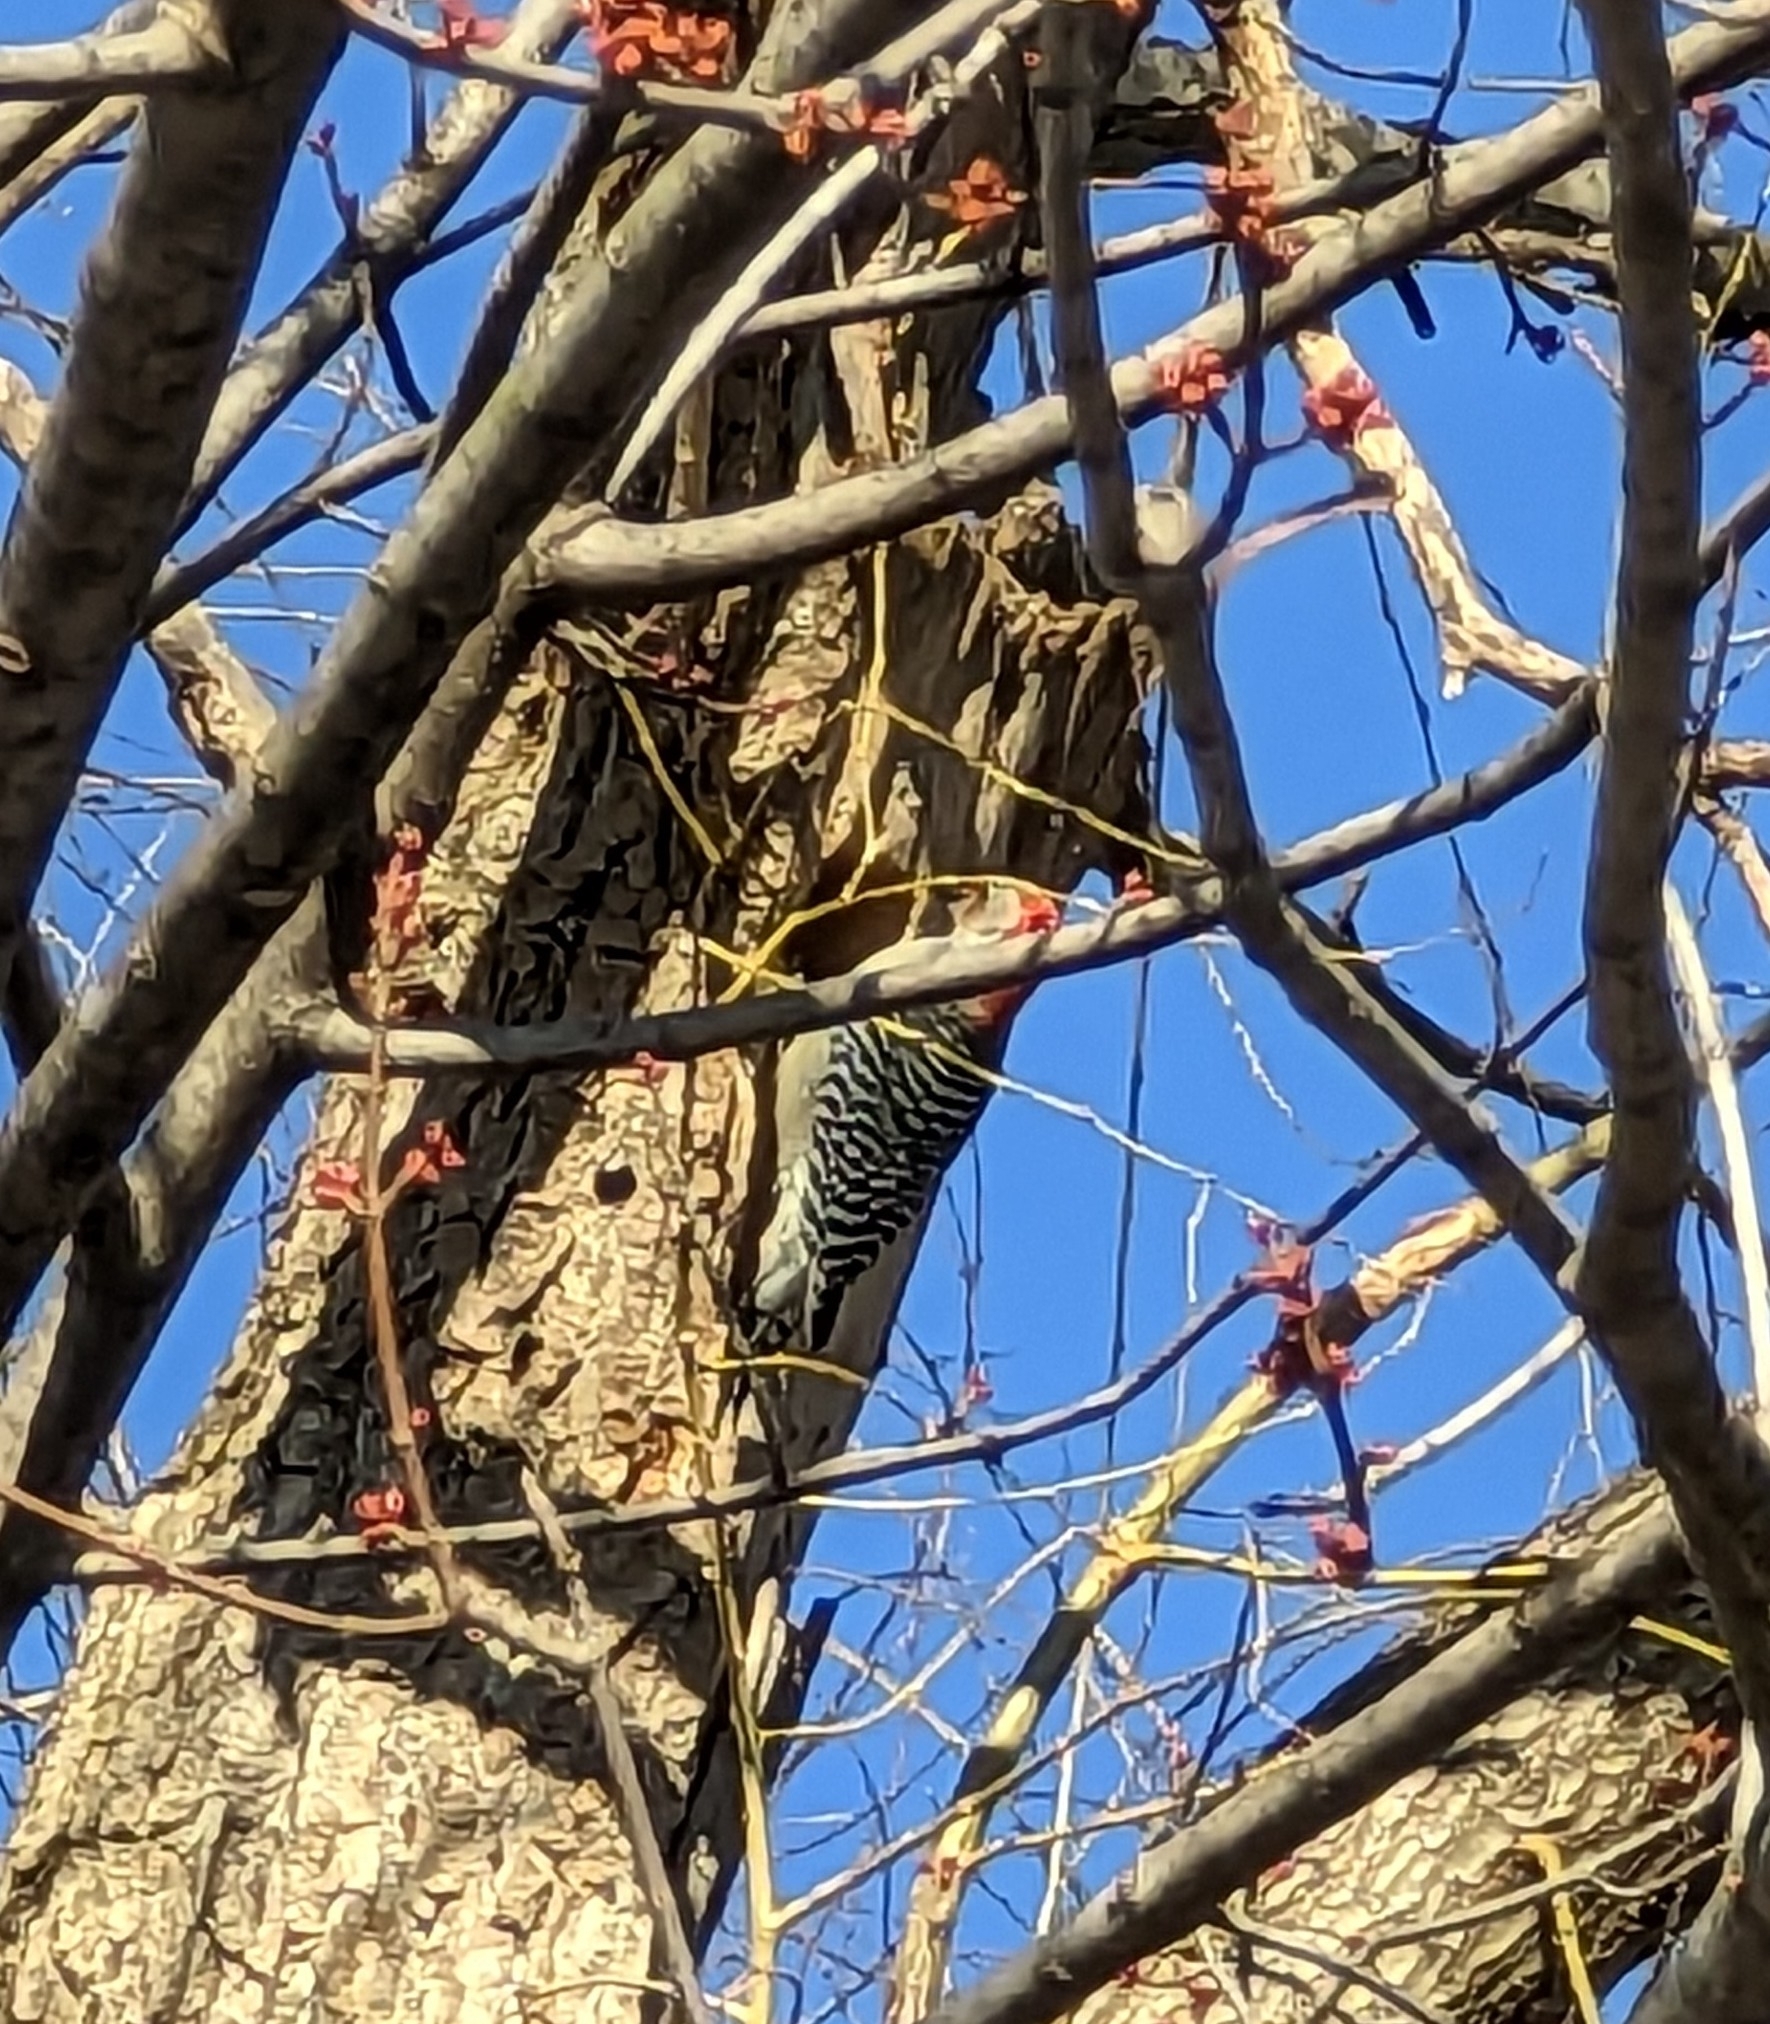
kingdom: Animalia
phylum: Chordata
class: Aves
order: Piciformes
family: Picidae
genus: Melanerpes
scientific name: Melanerpes carolinus
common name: Red-bellied woodpecker
